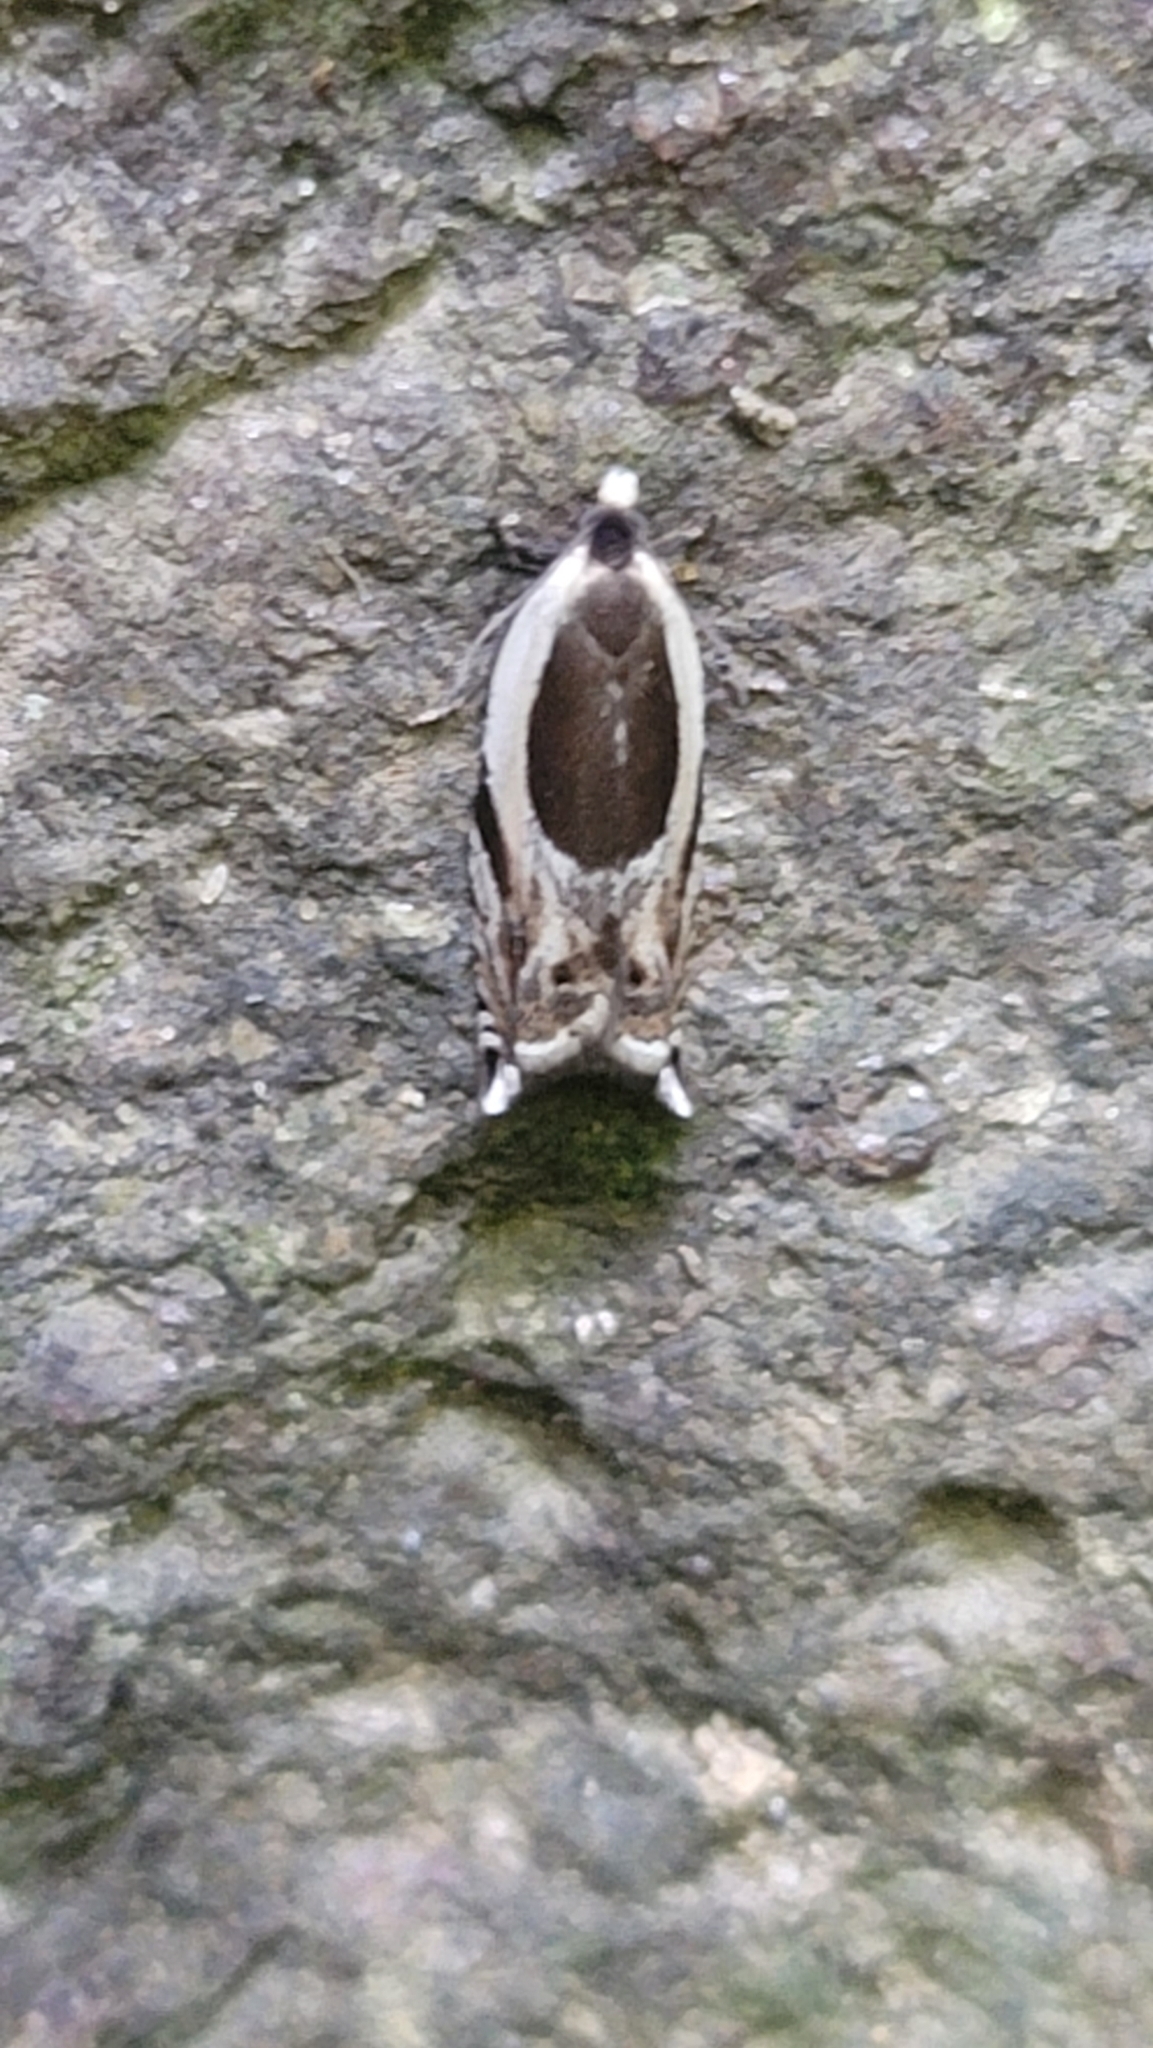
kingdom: Animalia
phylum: Arthropoda
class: Insecta
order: Lepidoptera
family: Tortricidae
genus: Ancylis
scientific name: Ancylis discigerana
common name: Yellow birch leaffolder moth
